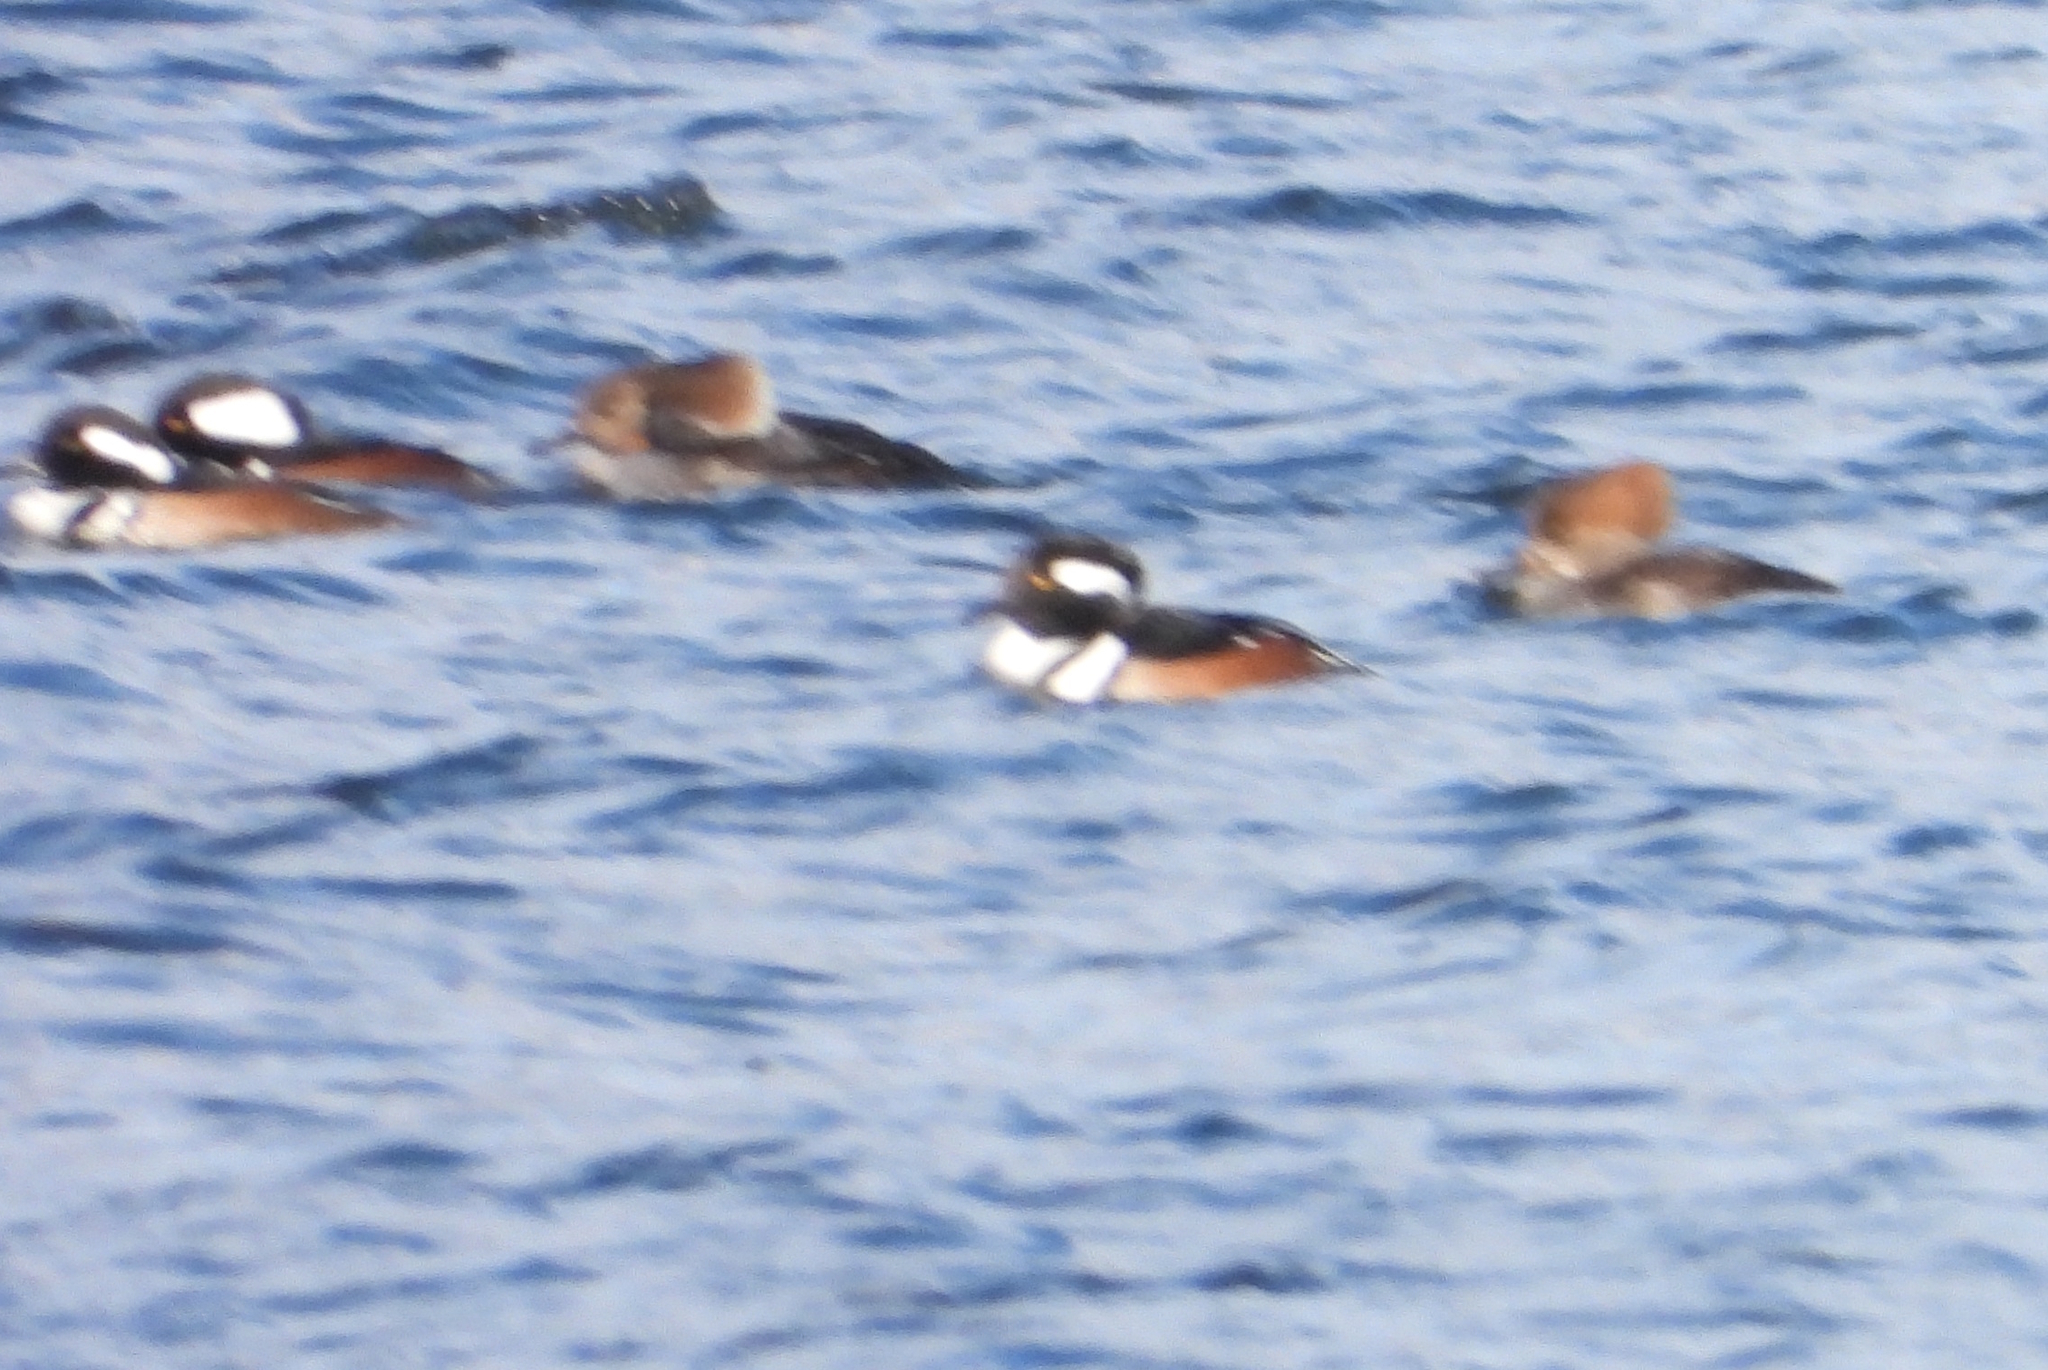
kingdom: Animalia
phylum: Chordata
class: Aves
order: Anseriformes
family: Anatidae
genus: Lophodytes
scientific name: Lophodytes cucullatus
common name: Hooded merganser
